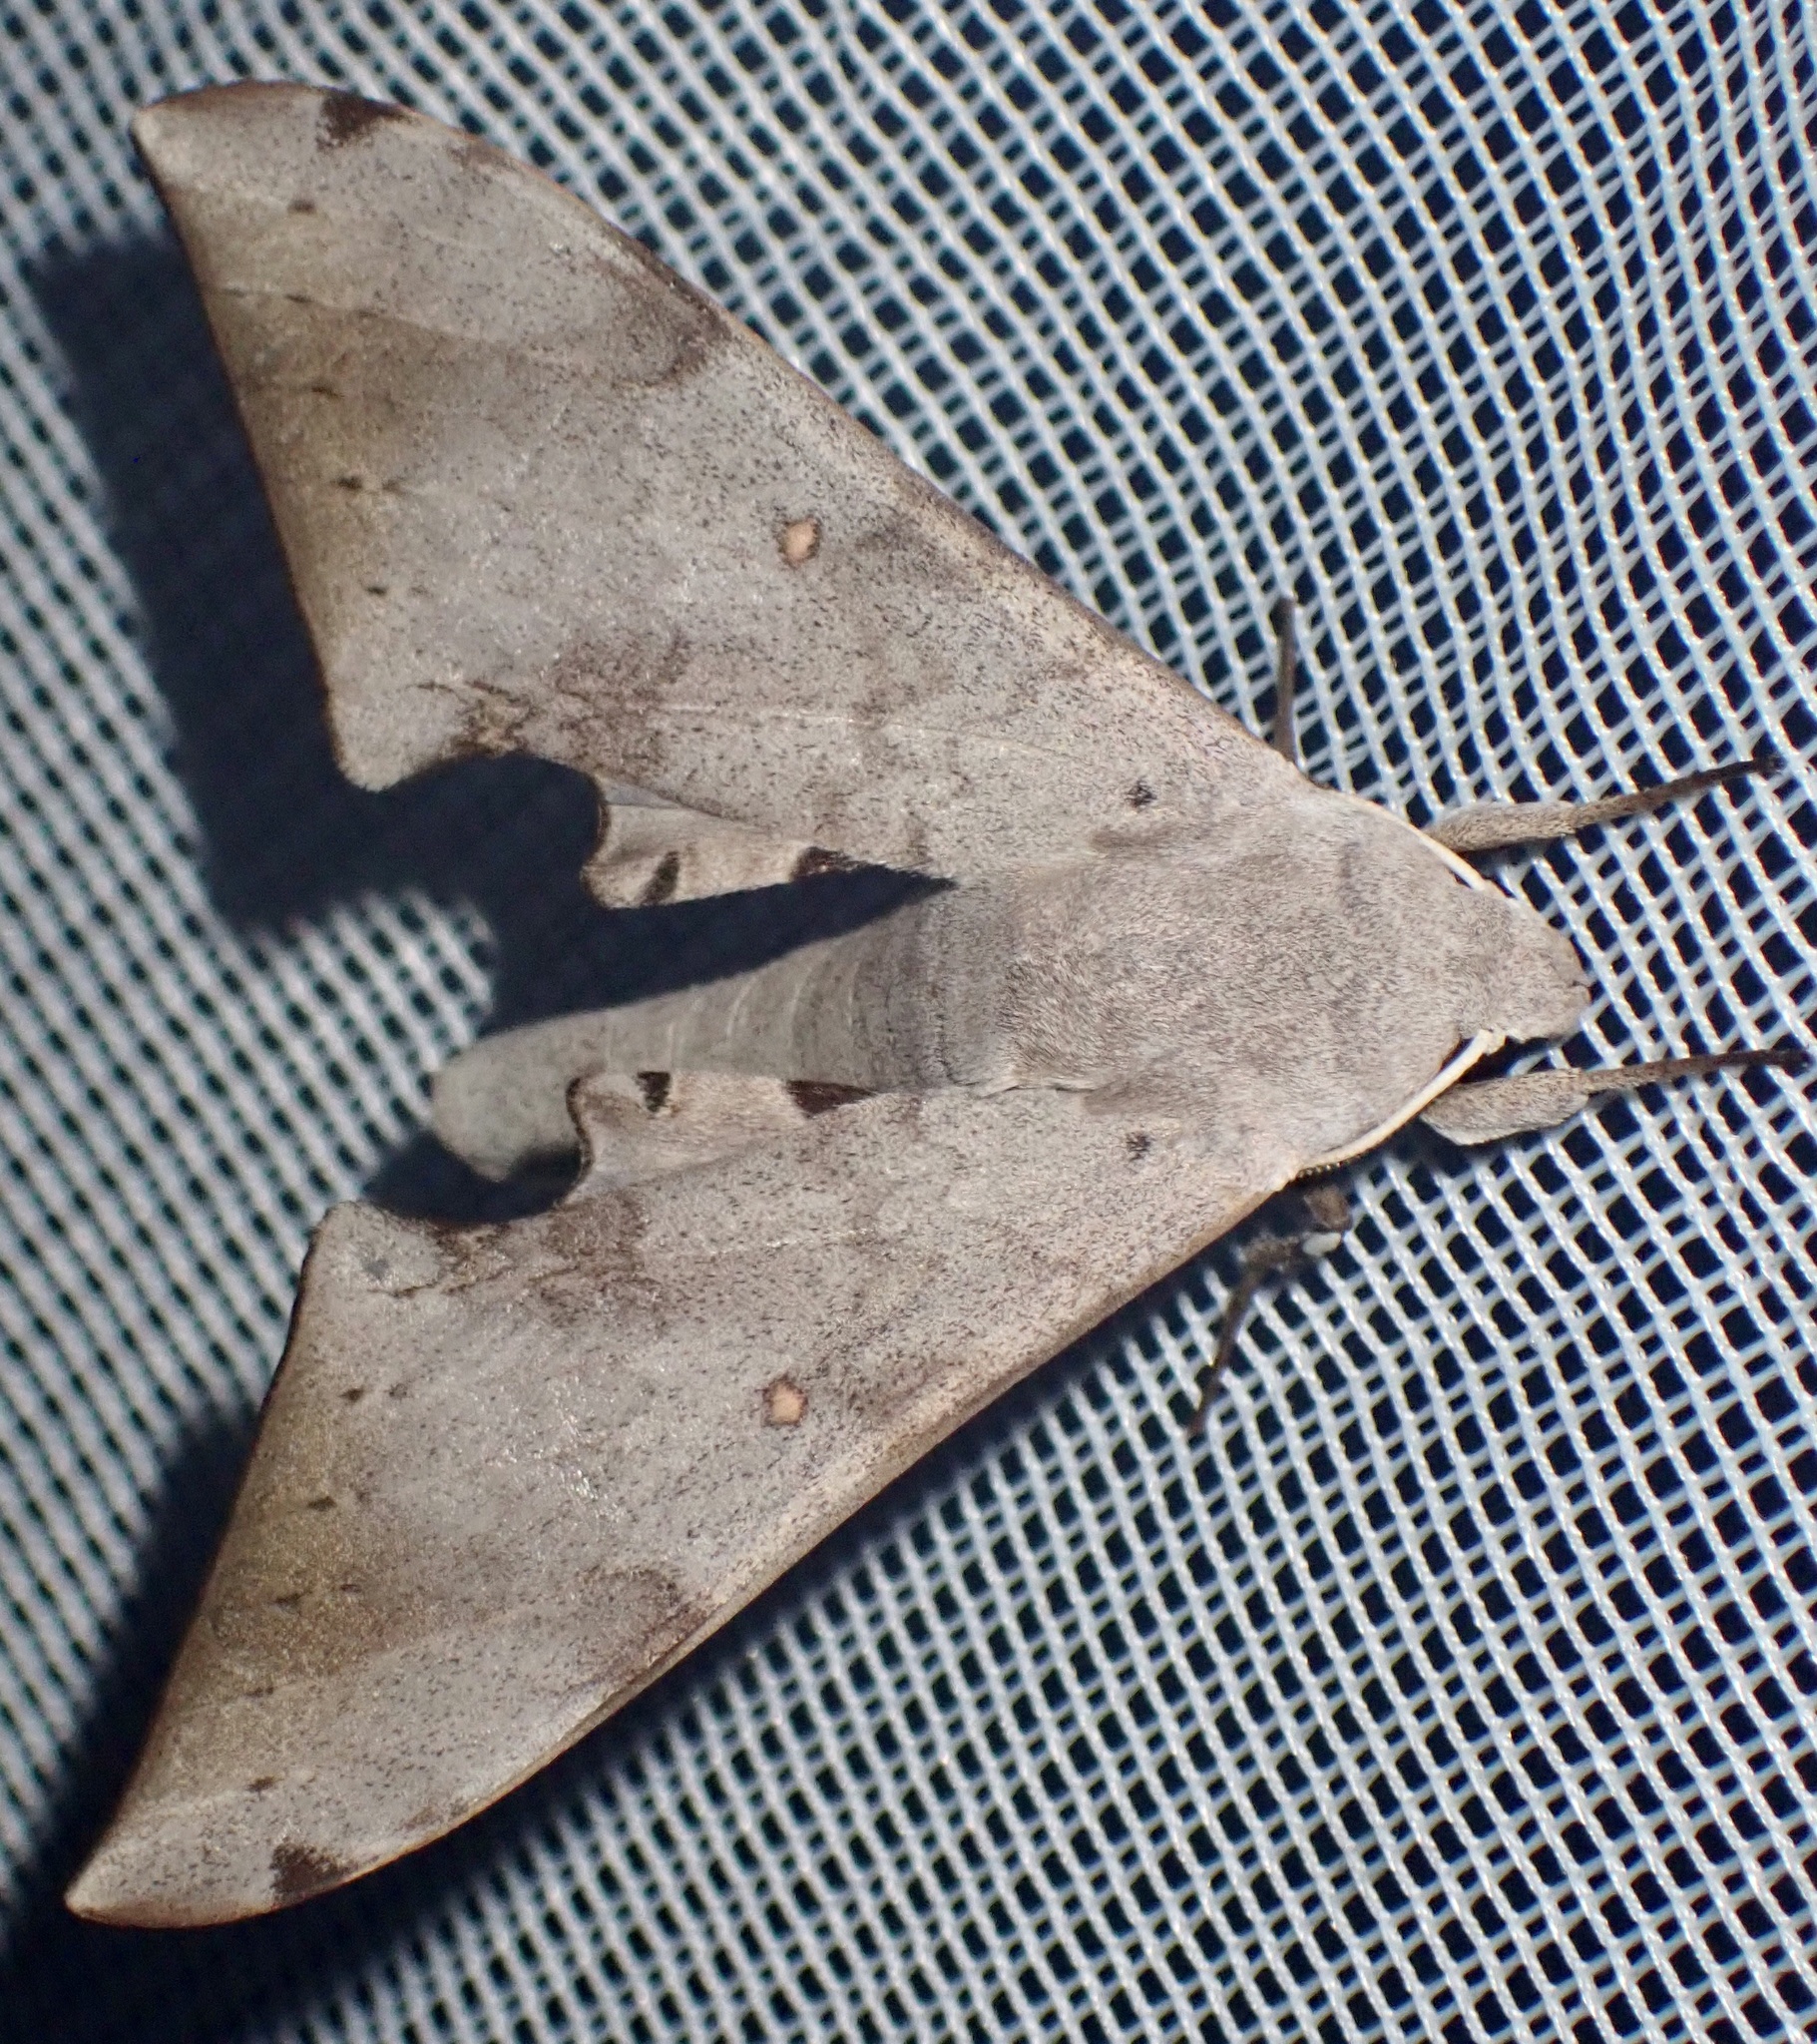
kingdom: Animalia
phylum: Arthropoda
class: Insecta
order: Lepidoptera
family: Sphingidae
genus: Neopolyptychus
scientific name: Neopolyptychus spurrelli
